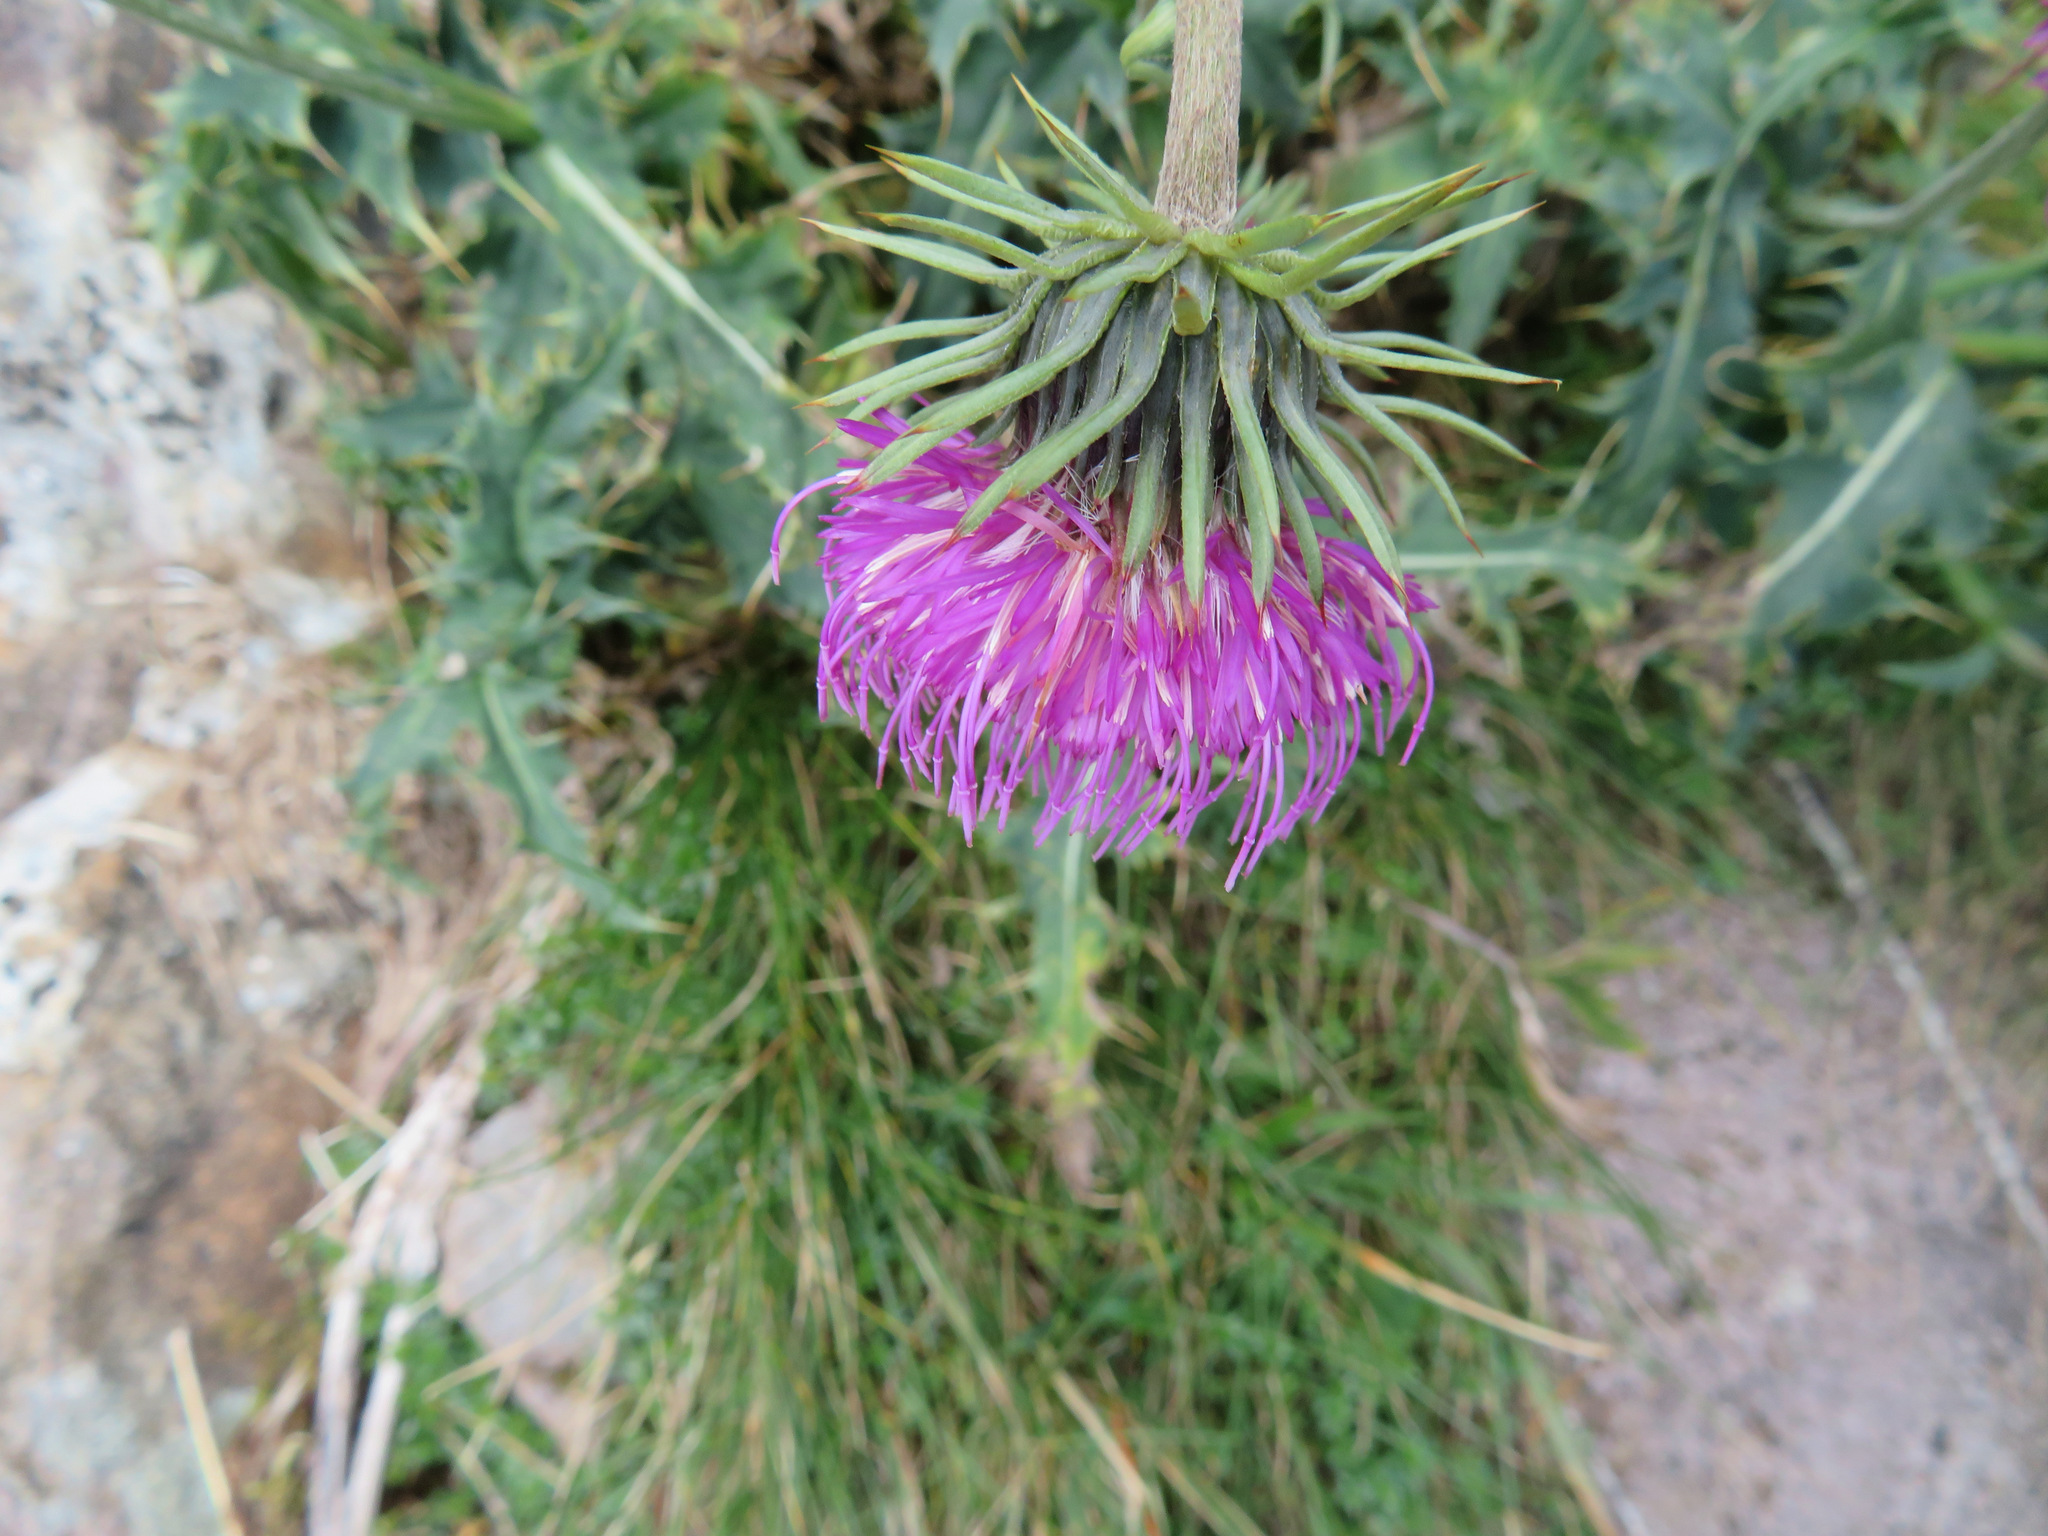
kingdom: Plantae
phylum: Tracheophyta
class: Magnoliopsida
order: Asterales
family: Asteraceae
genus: Carduus
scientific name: Carduus defloratus
